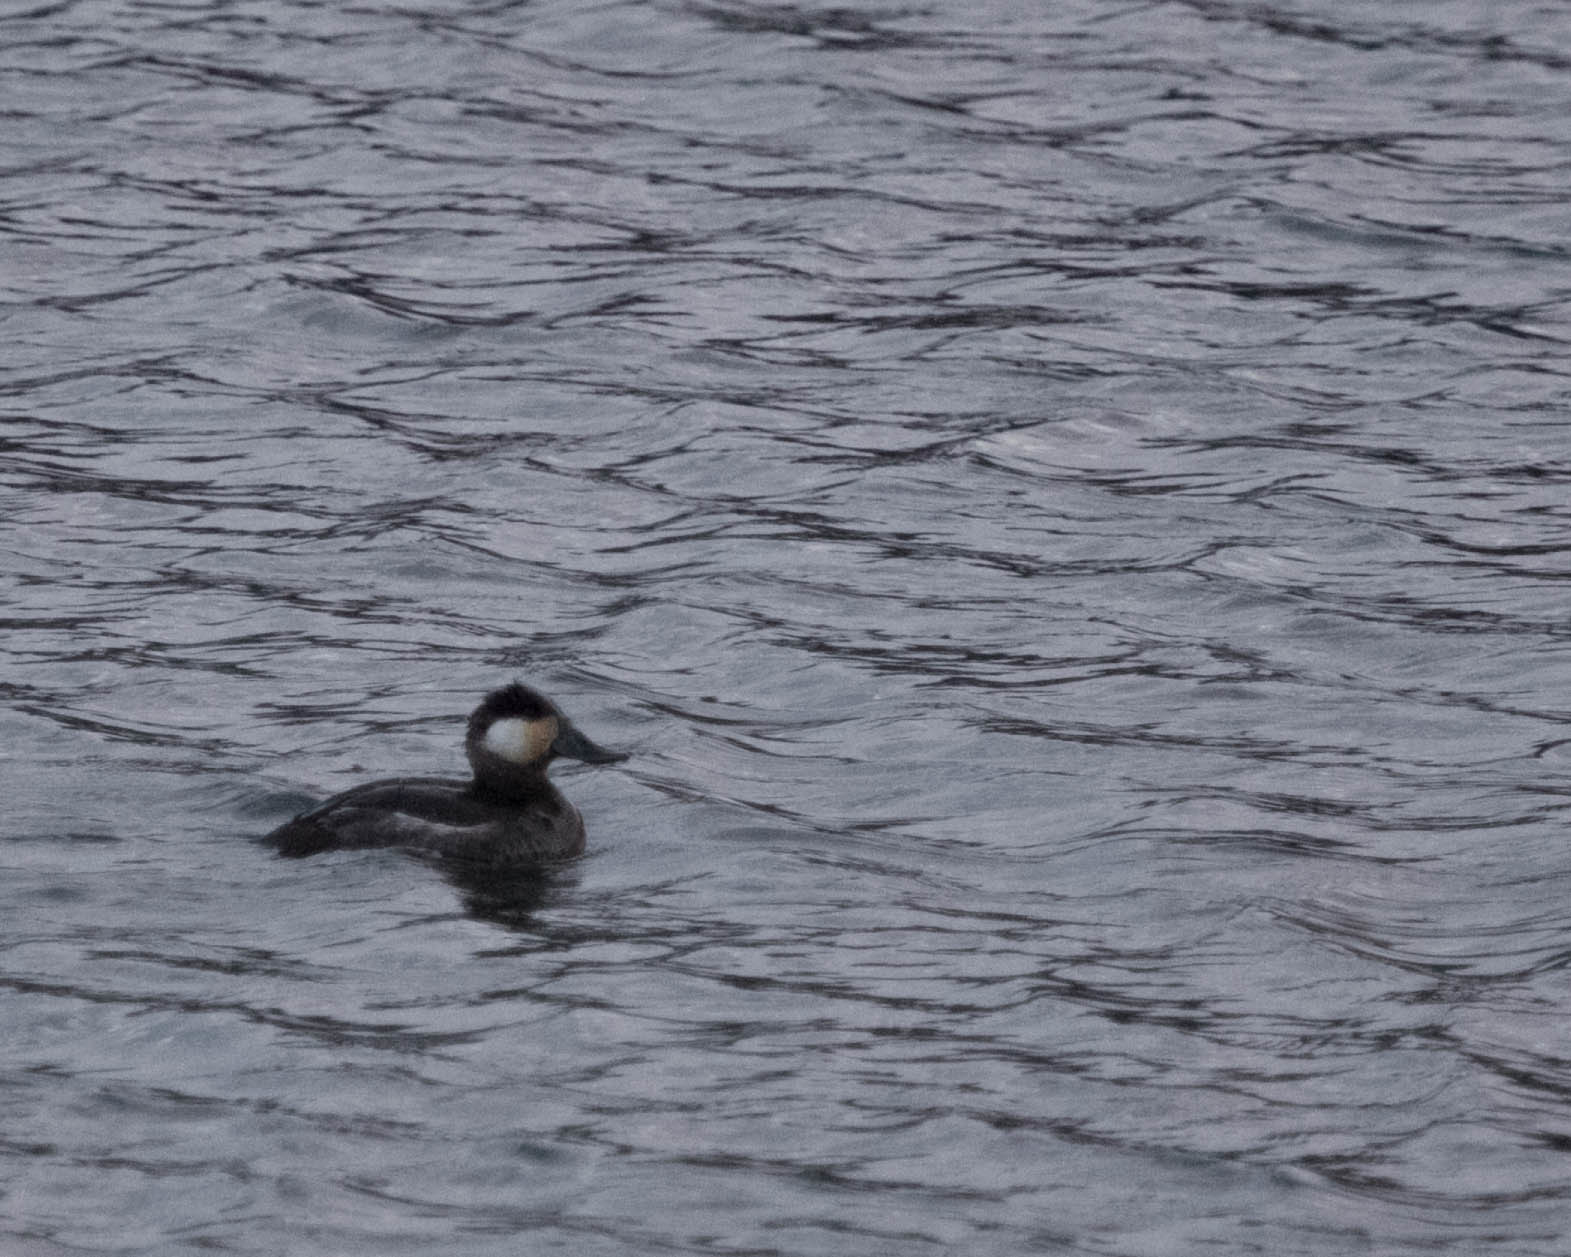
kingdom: Animalia
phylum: Chordata
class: Aves
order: Anseriformes
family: Anatidae
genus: Oxyura
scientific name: Oxyura jamaicensis
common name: Ruddy duck
